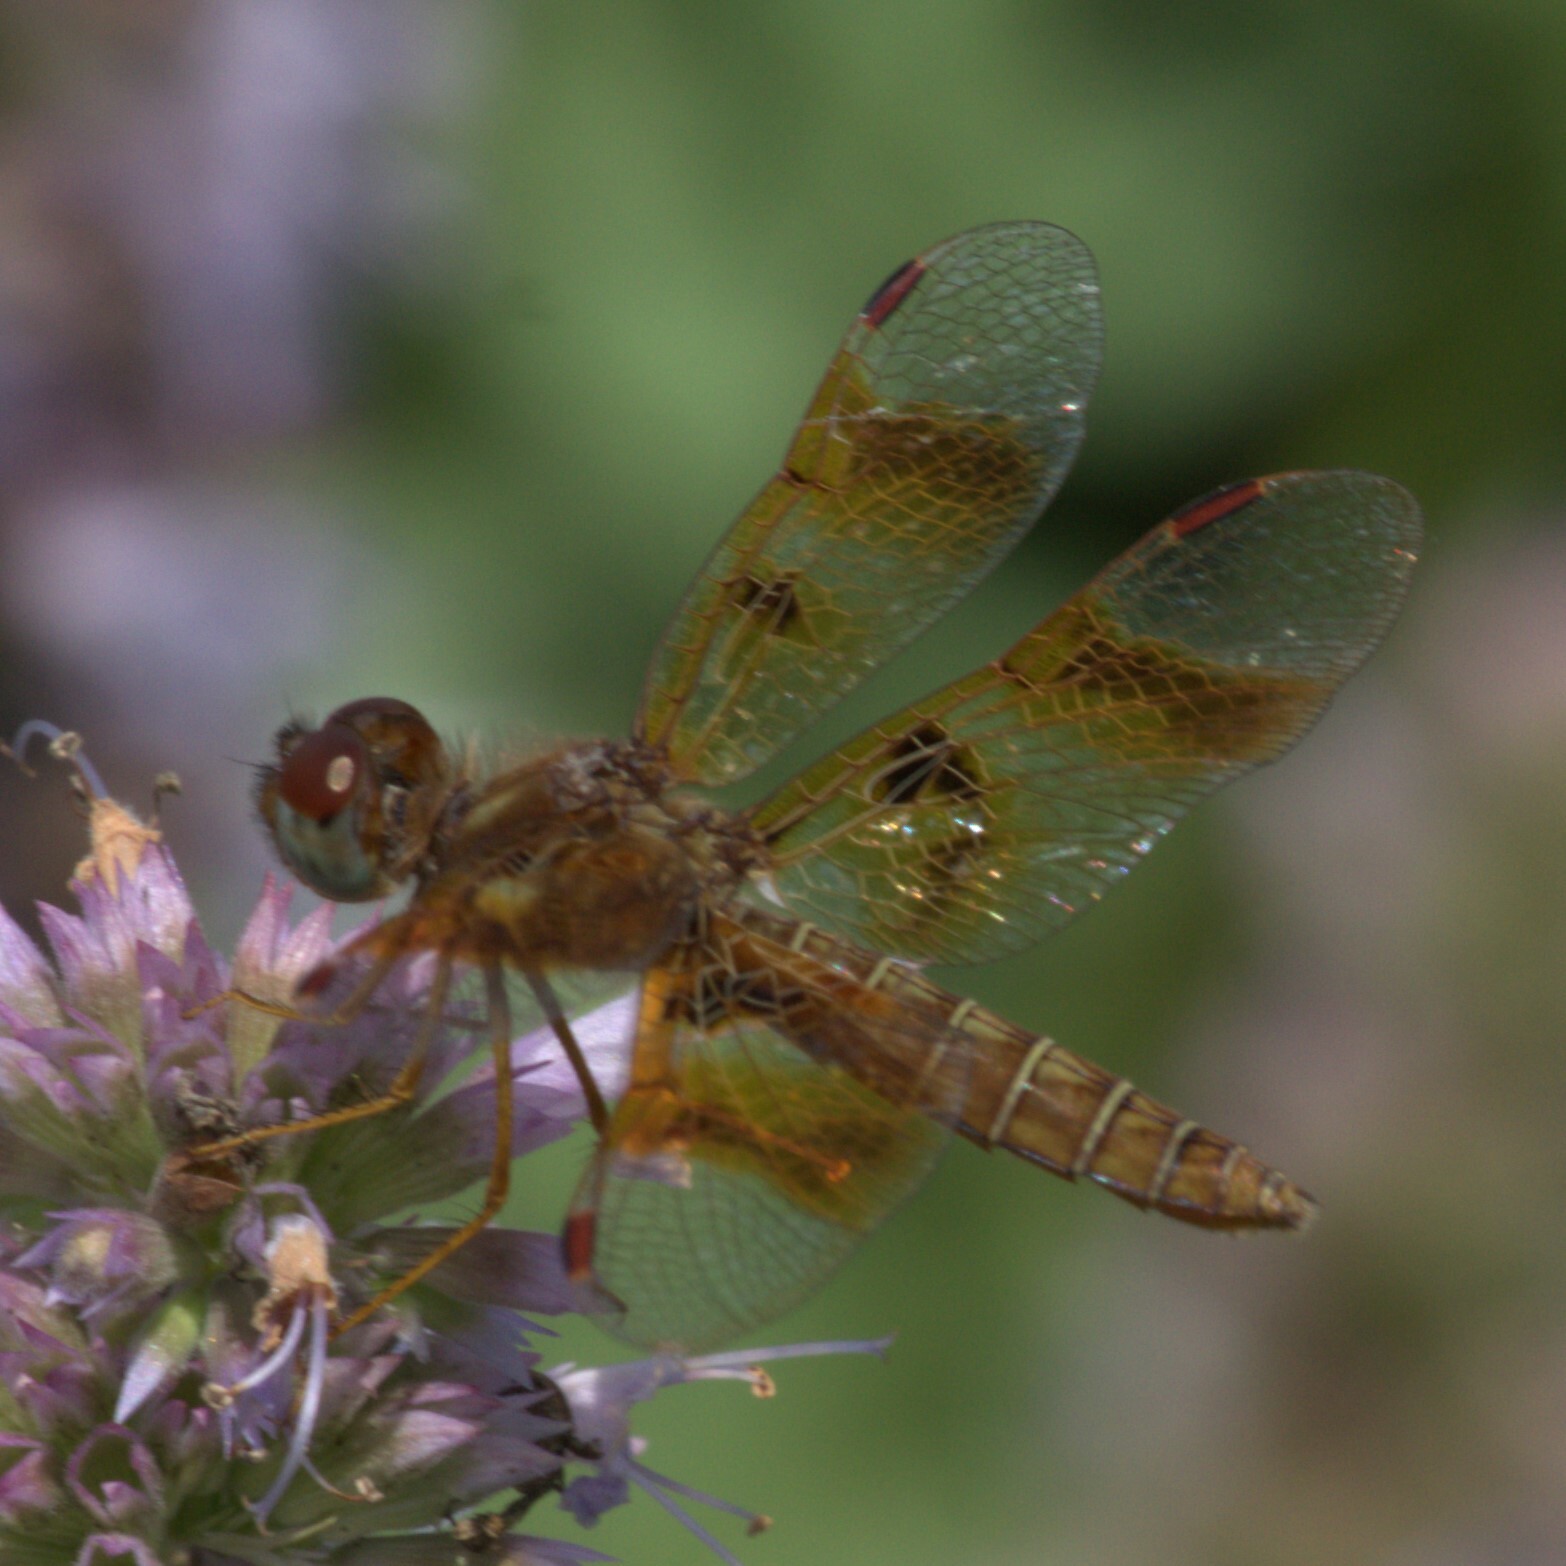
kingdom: Animalia
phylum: Arthropoda
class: Insecta
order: Odonata
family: Libellulidae
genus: Perithemis
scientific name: Perithemis tenera
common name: Eastern amberwing
